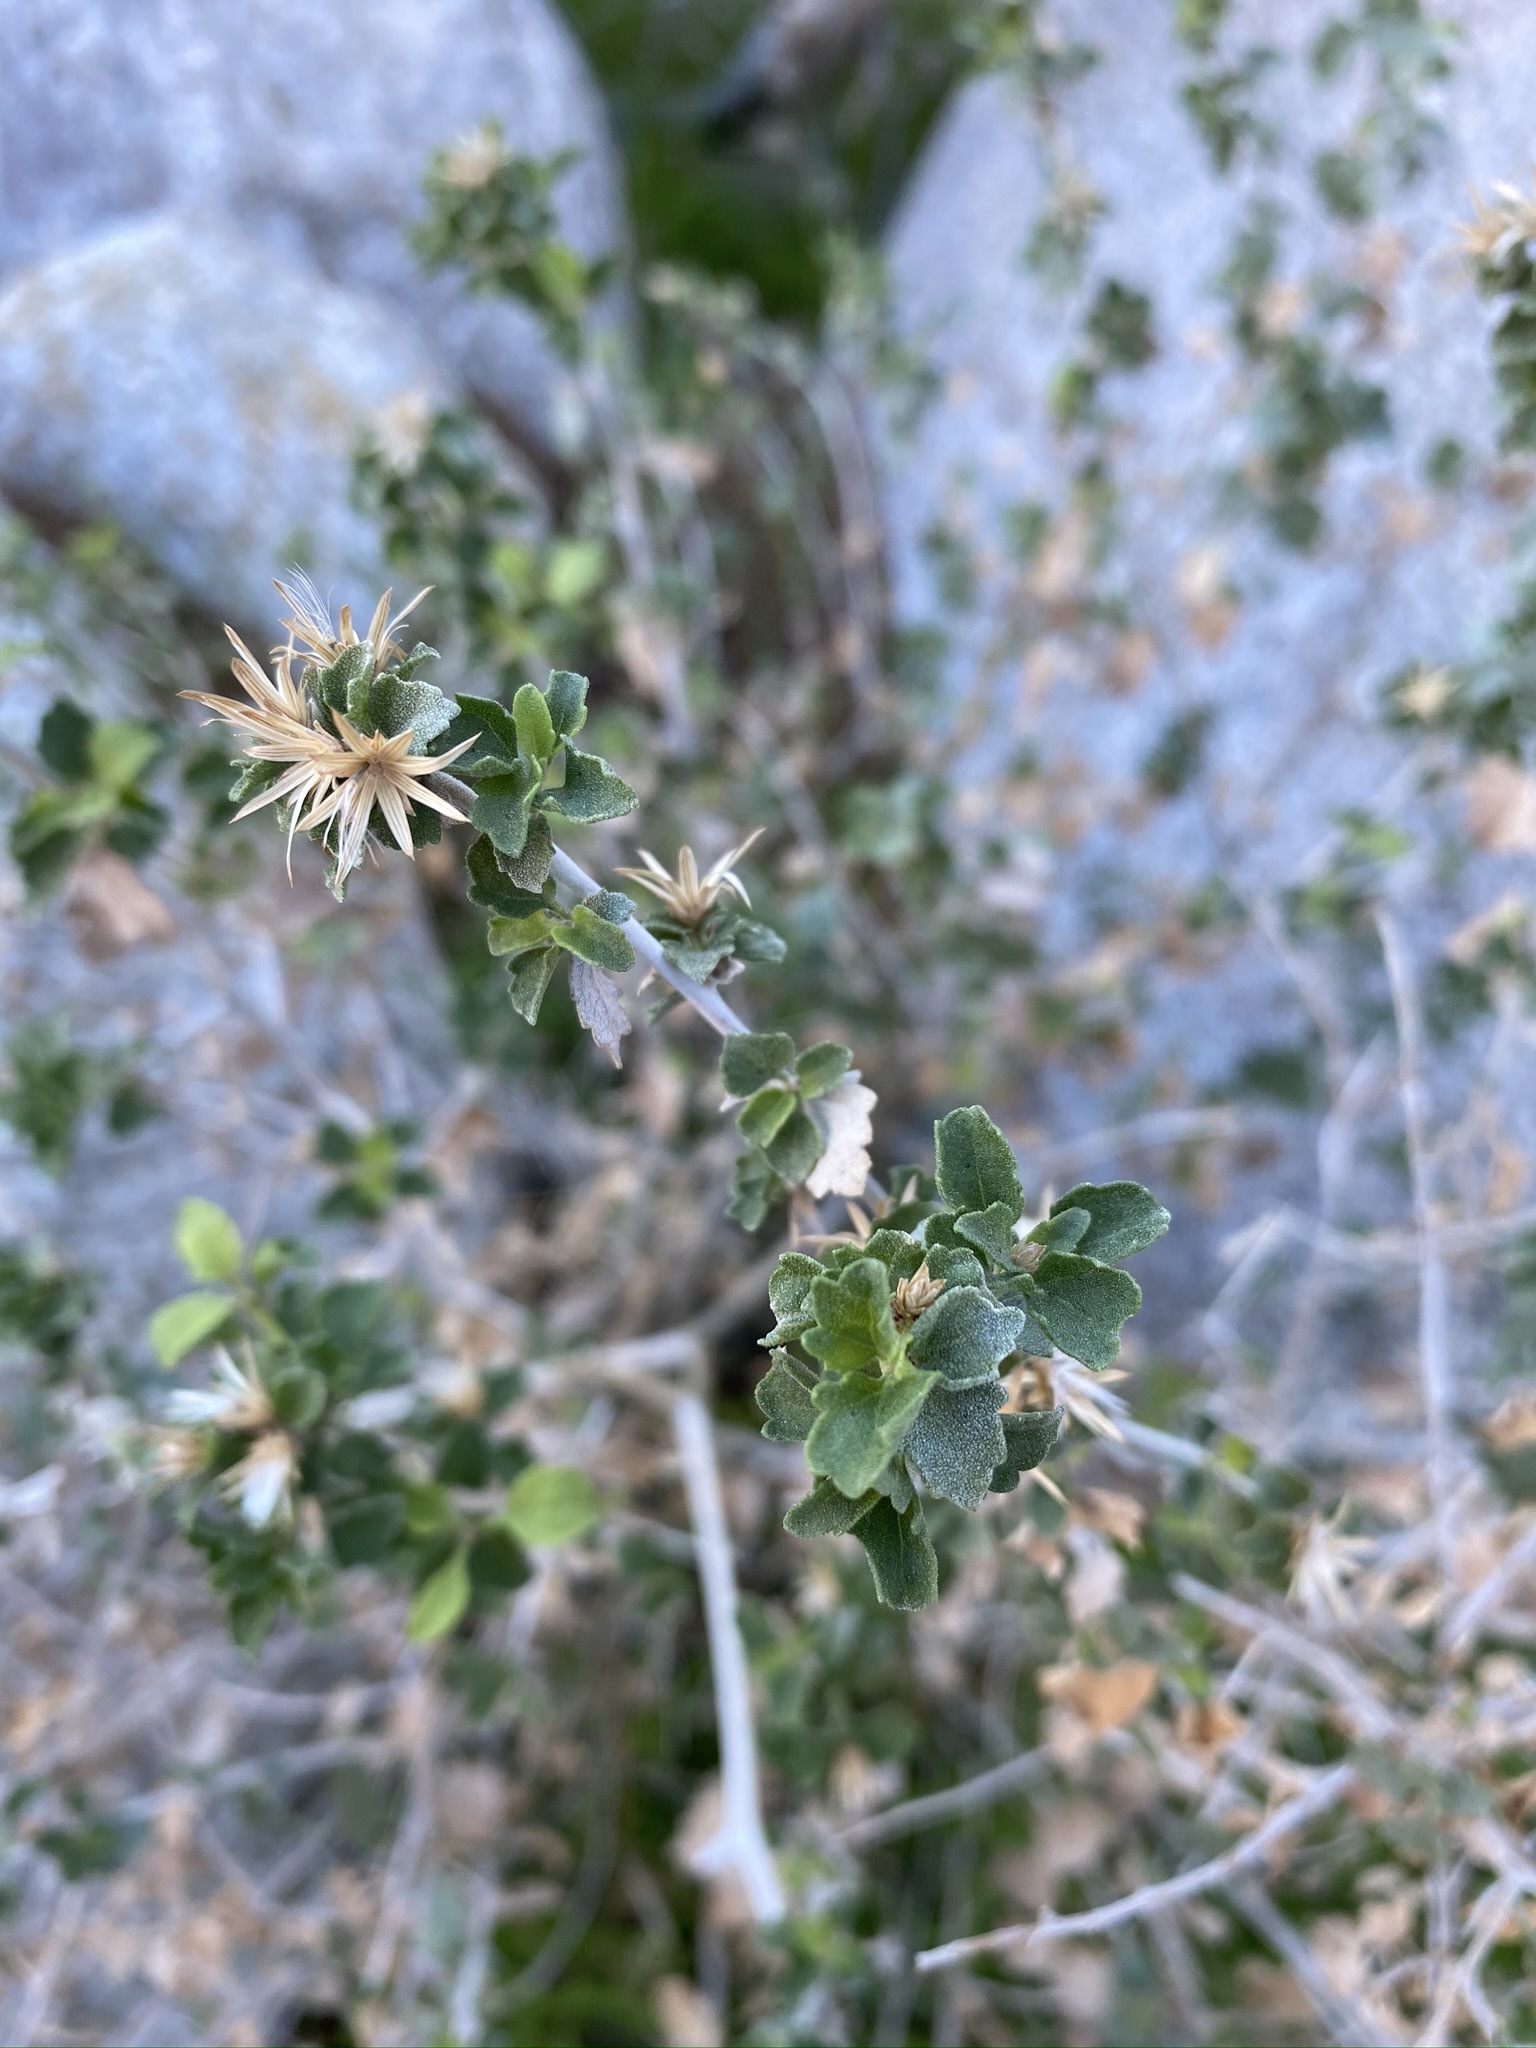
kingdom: Plantae
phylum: Tracheophyta
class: Magnoliopsida
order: Asterales
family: Asteraceae
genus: Brickellia
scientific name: Brickellia desertorum
